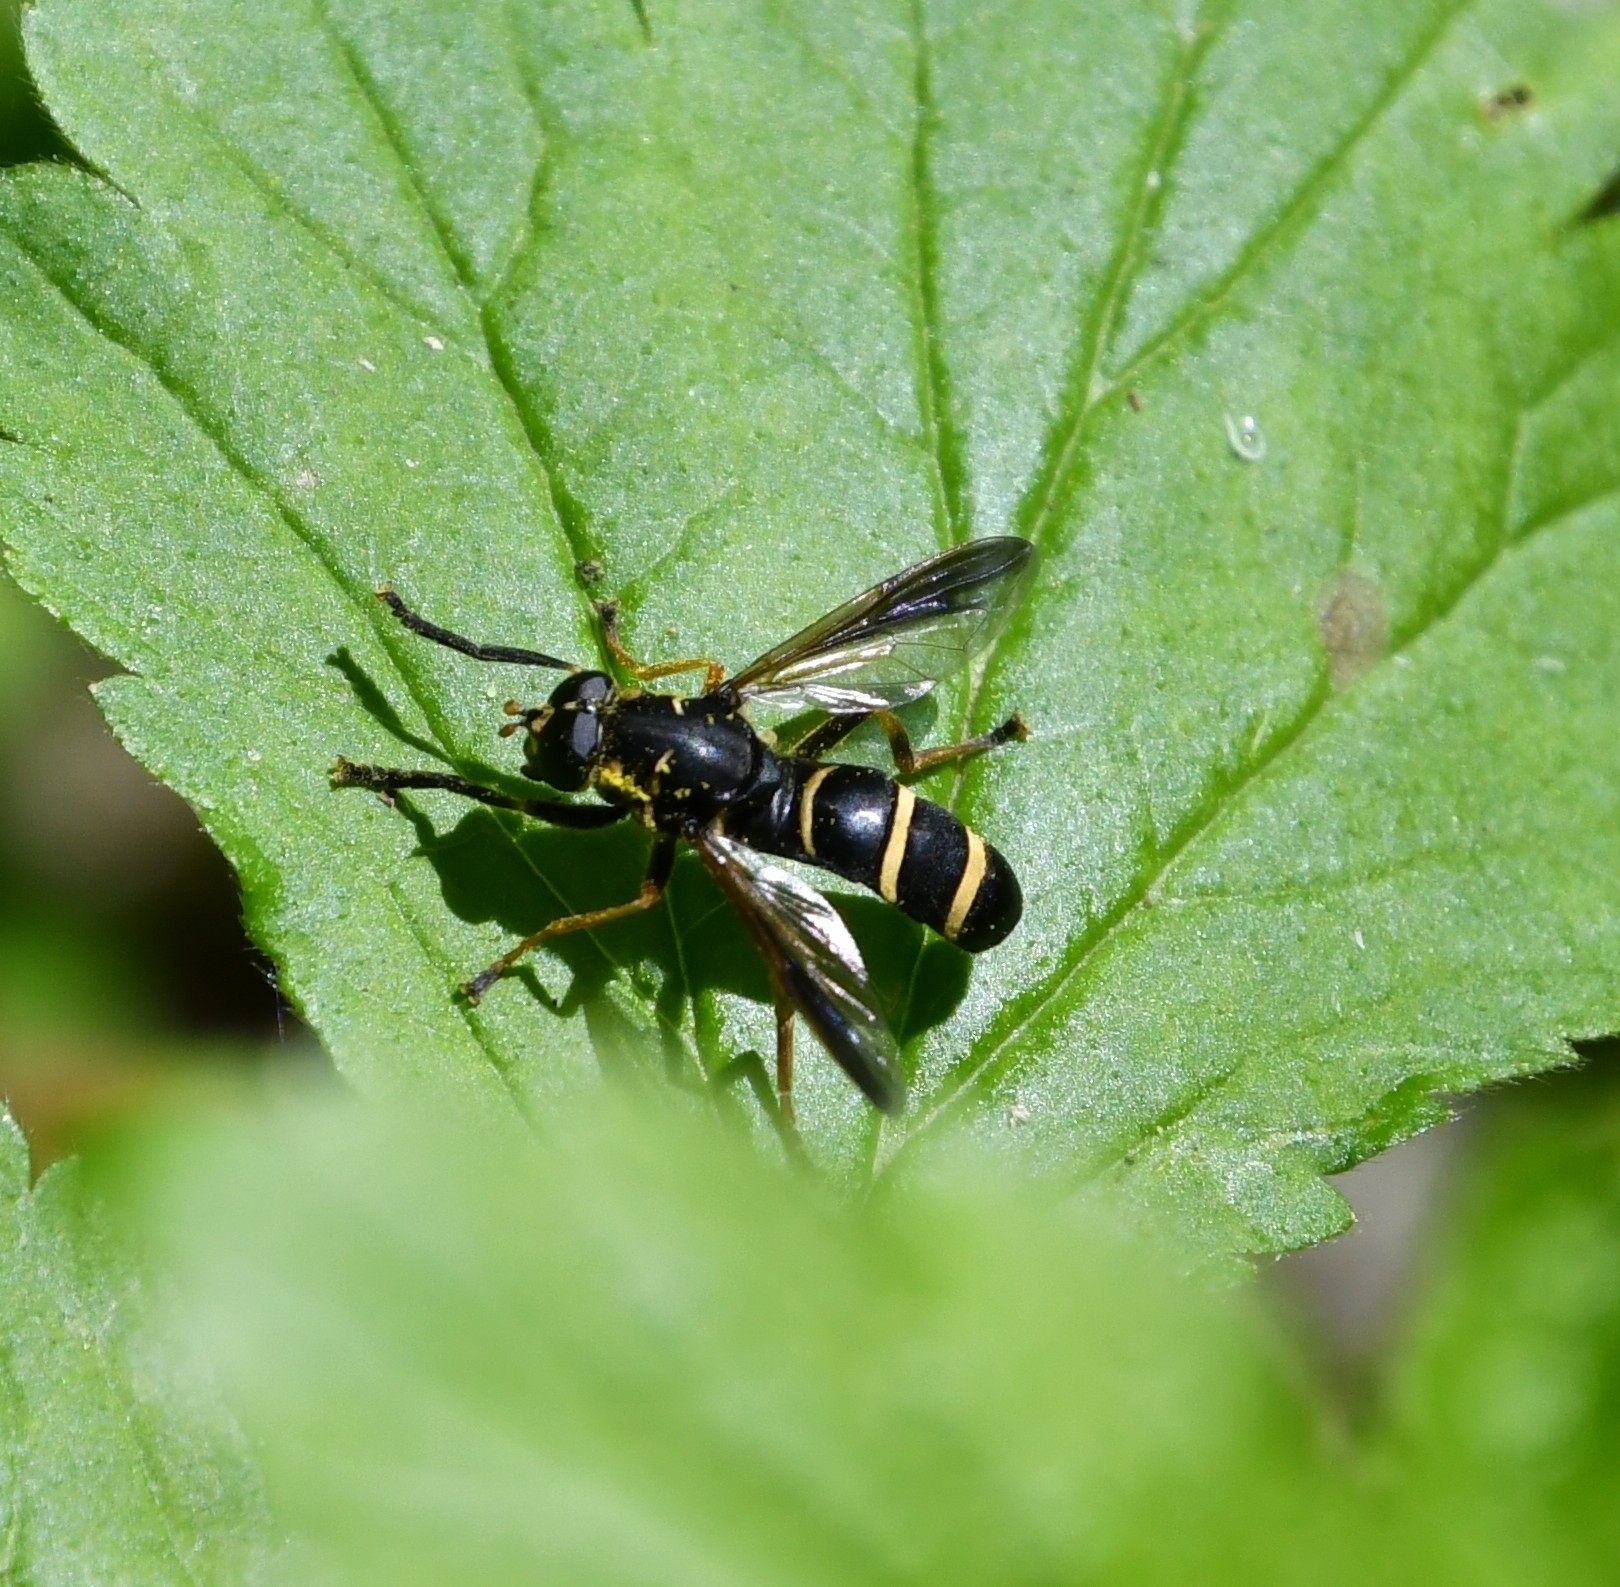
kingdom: Animalia
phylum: Arthropoda
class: Insecta
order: Diptera
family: Syrphidae
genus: Temnostoma
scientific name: Temnostoma angustistriatum
